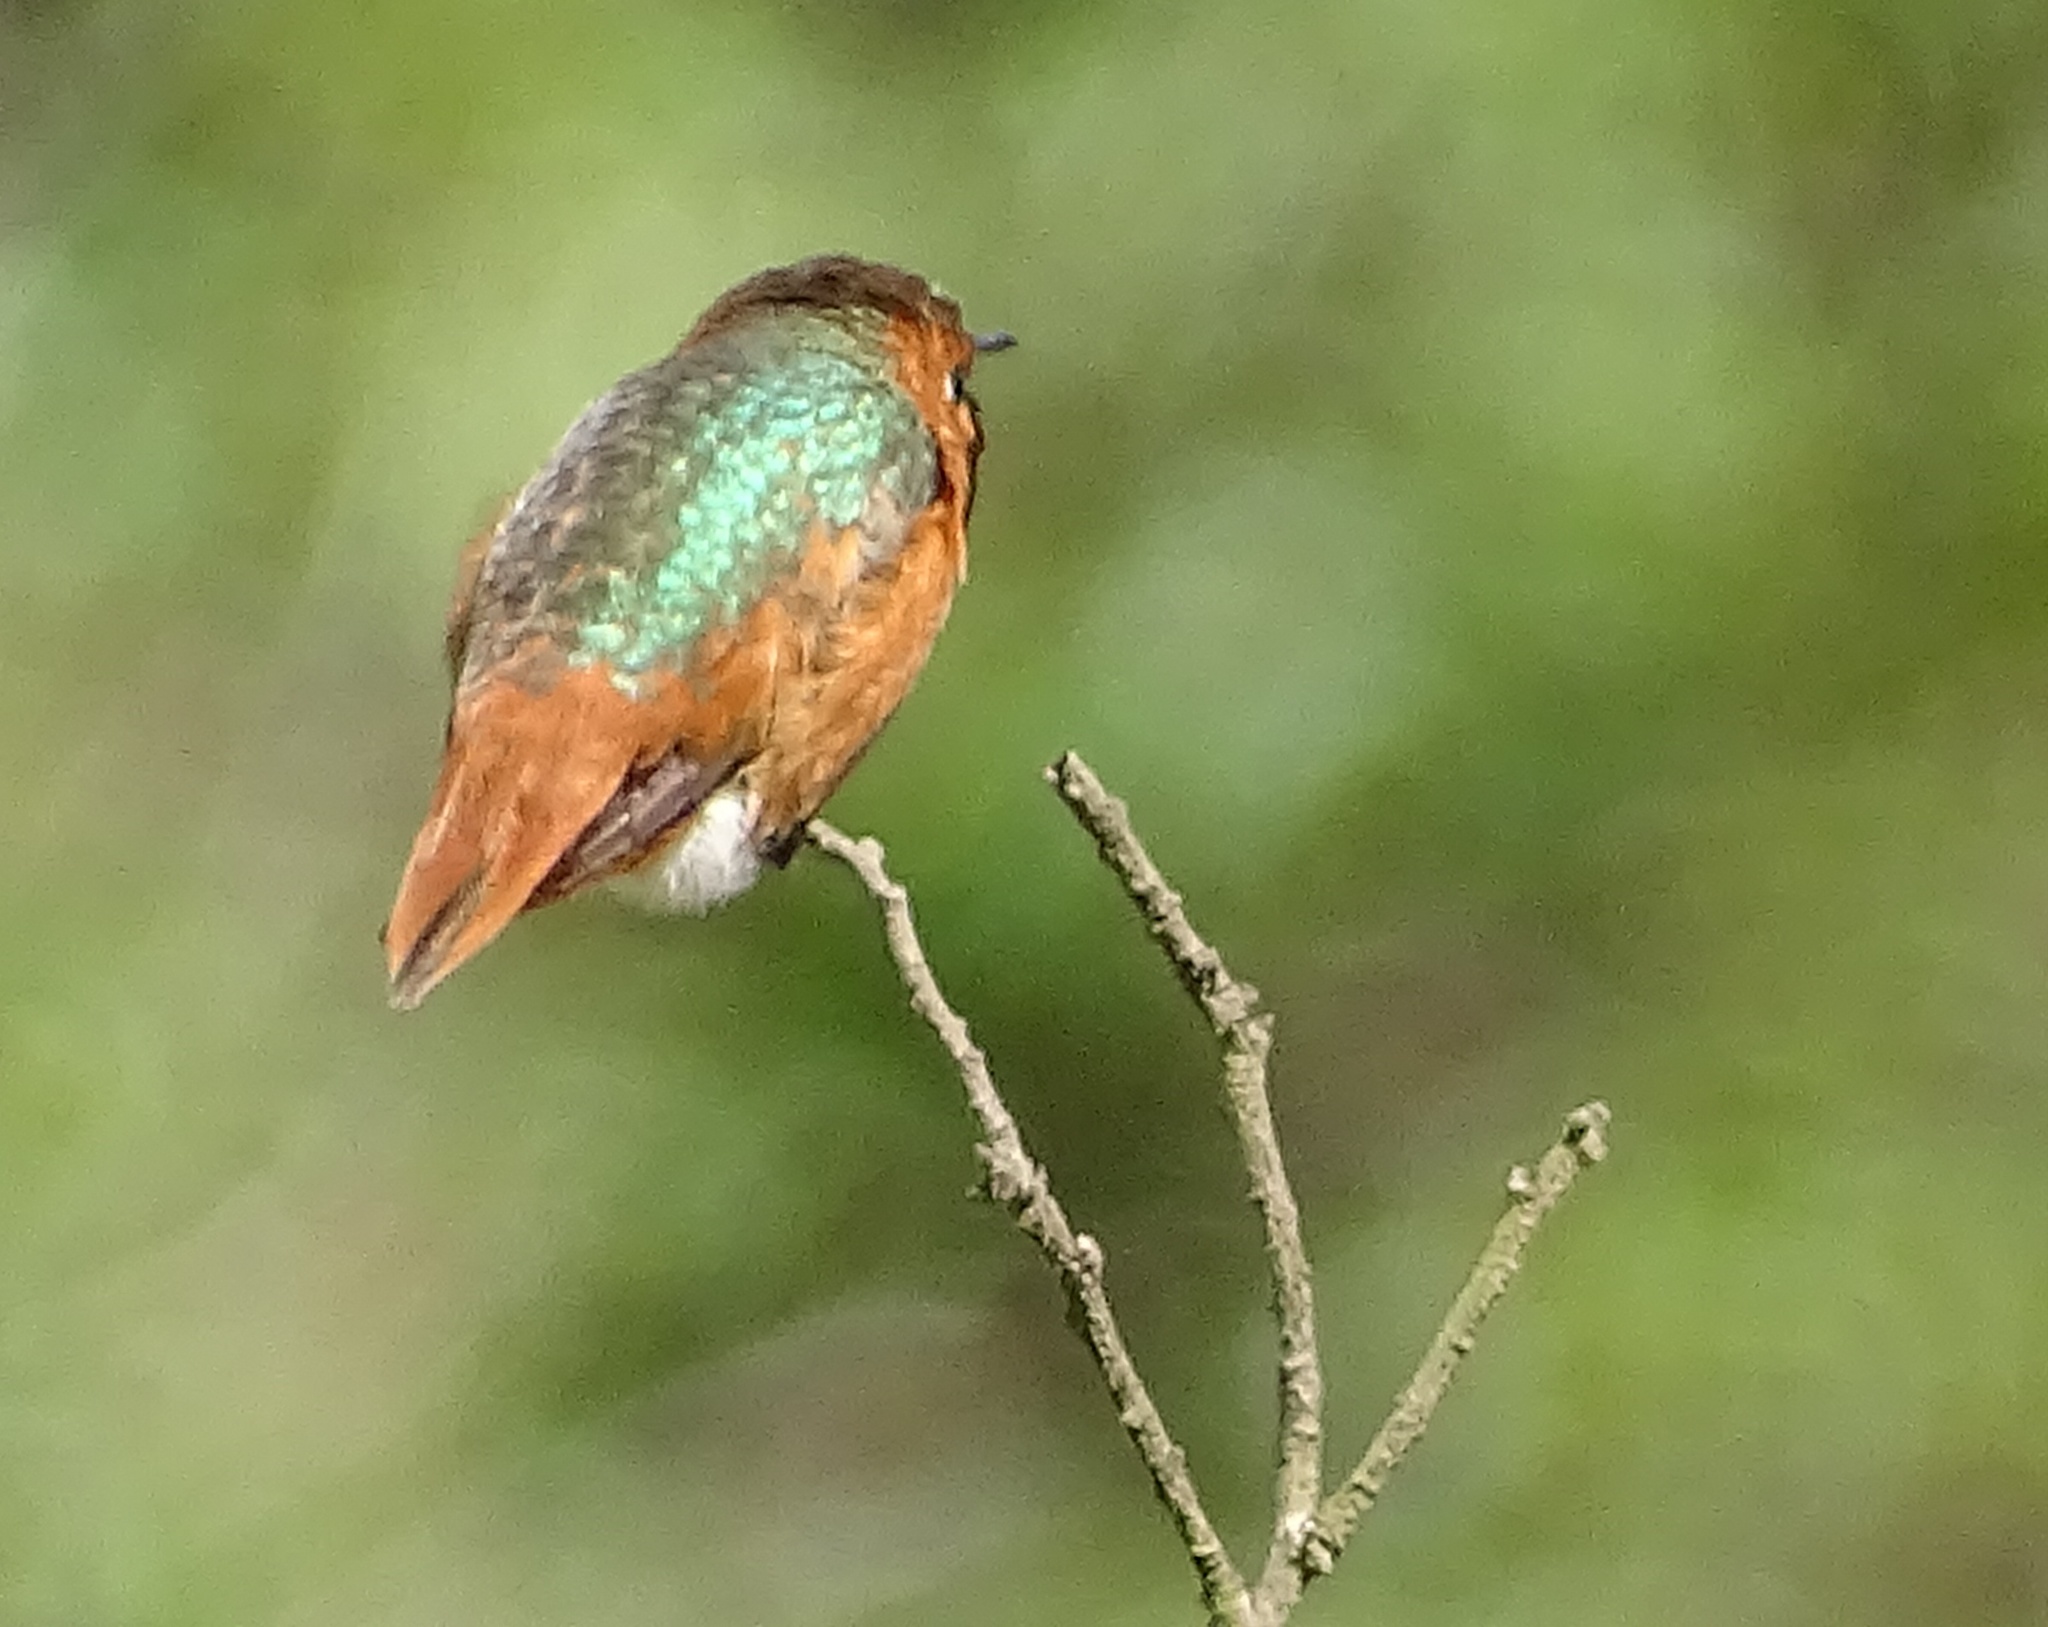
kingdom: Animalia
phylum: Chordata
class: Aves
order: Apodiformes
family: Trochilidae
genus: Selasphorus
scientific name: Selasphorus sasin
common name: Allen's hummingbird
